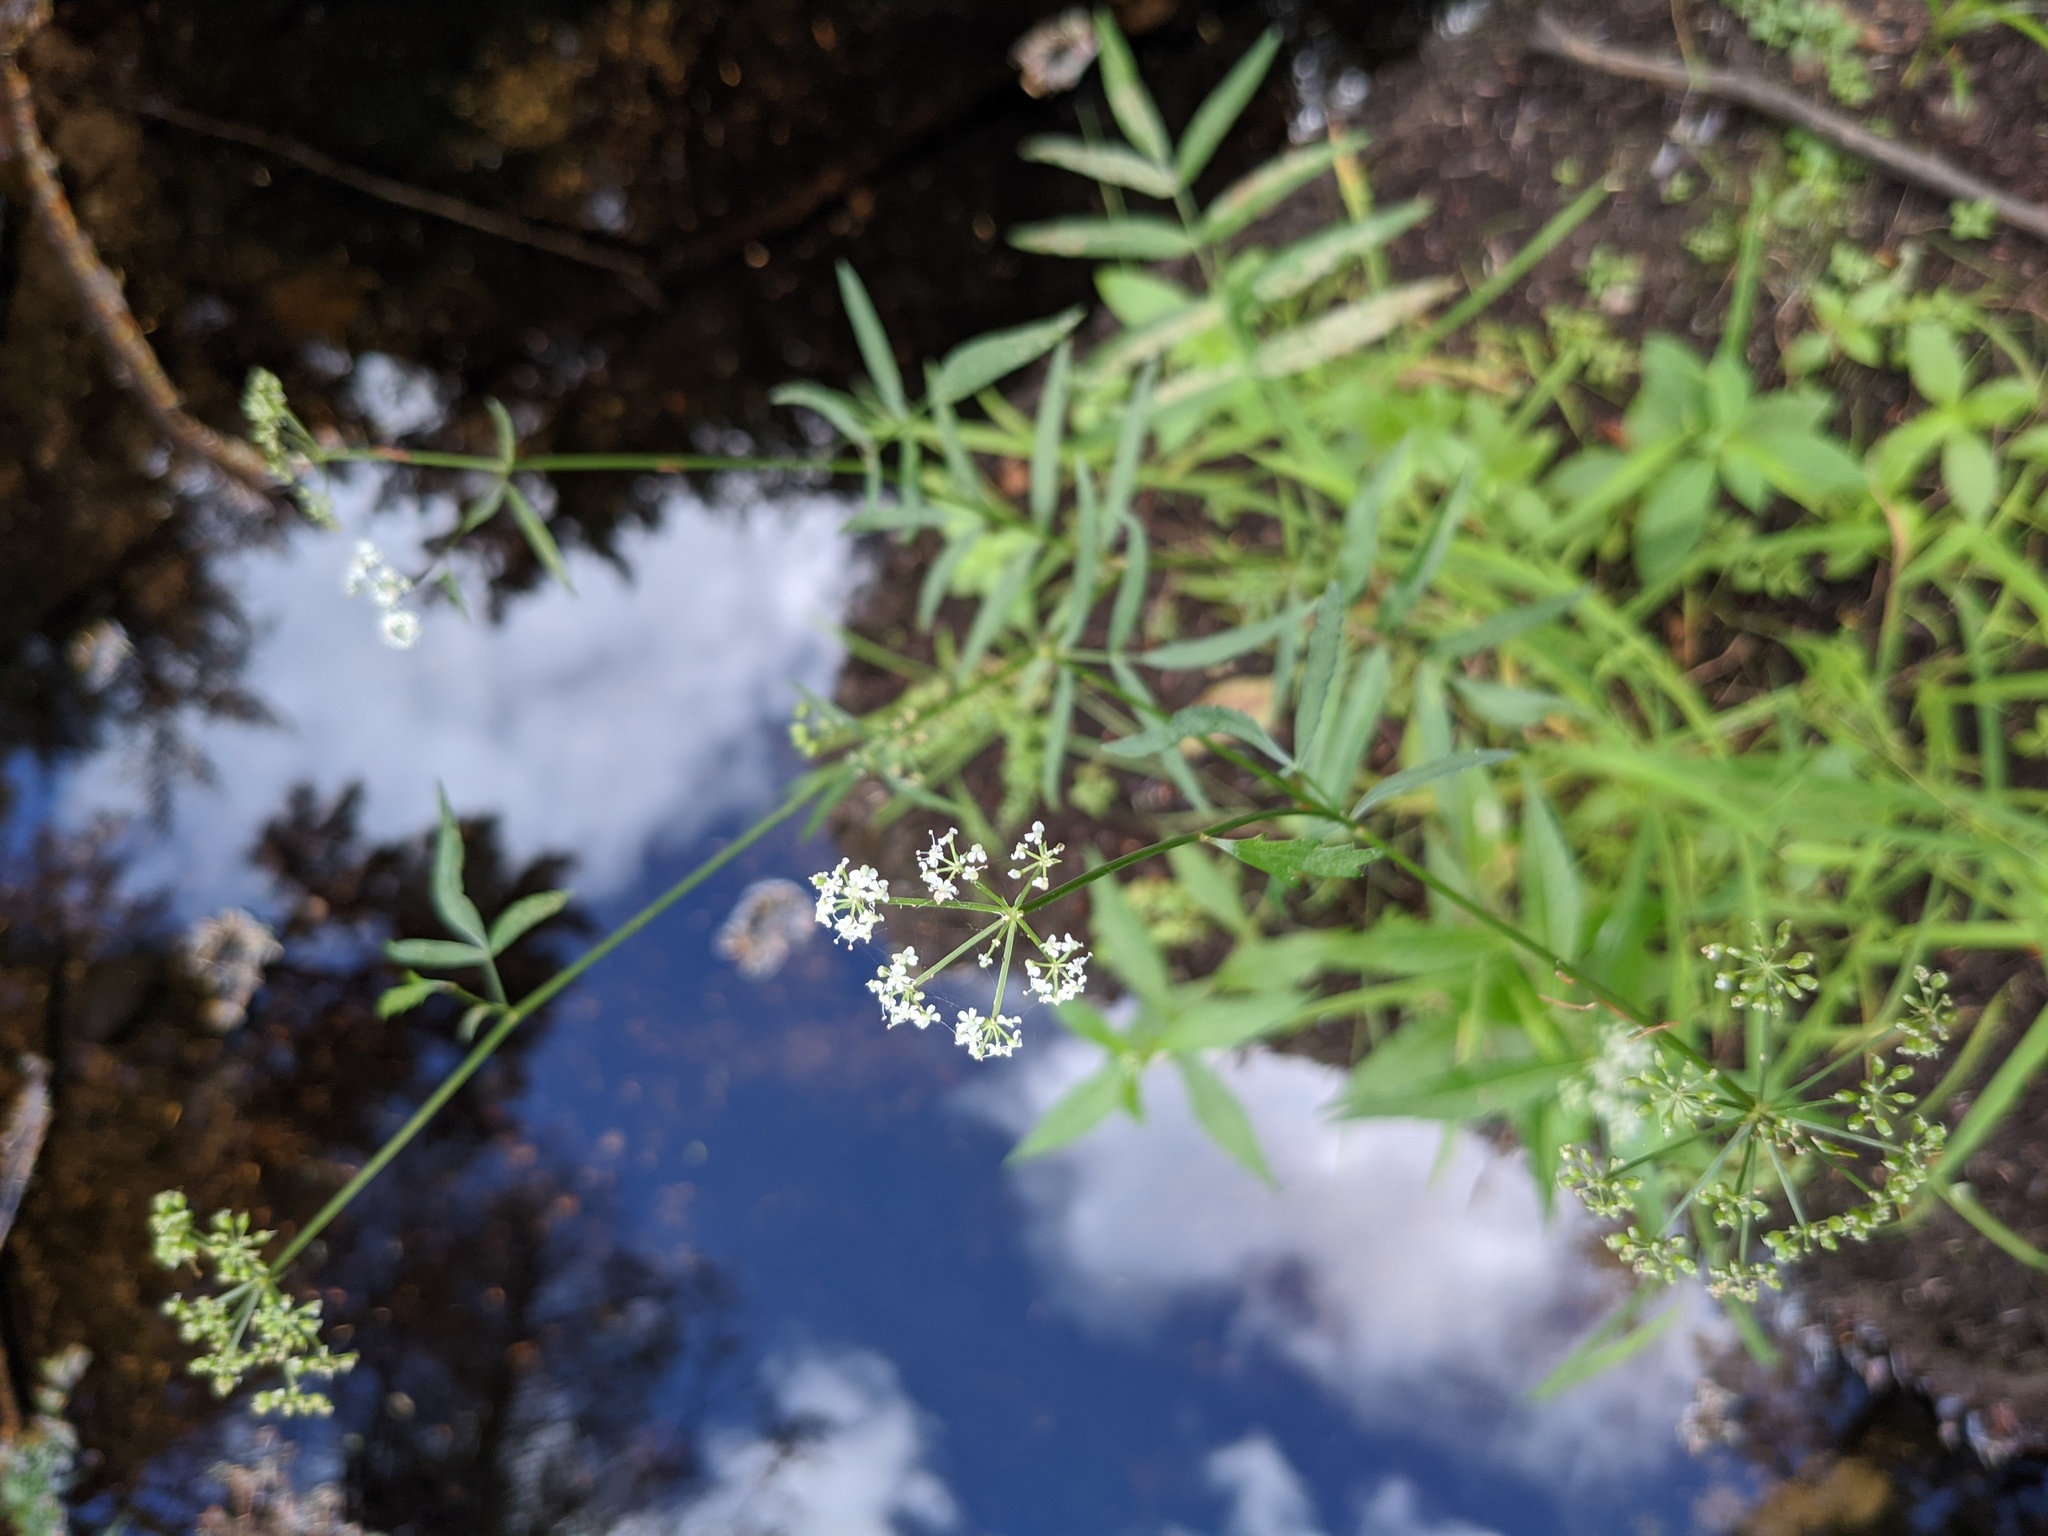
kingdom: Plantae
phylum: Tracheophyta
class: Magnoliopsida
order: Apiales
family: Apiaceae
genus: Sium
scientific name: Sium suave
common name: Hemlock water-parsnip
